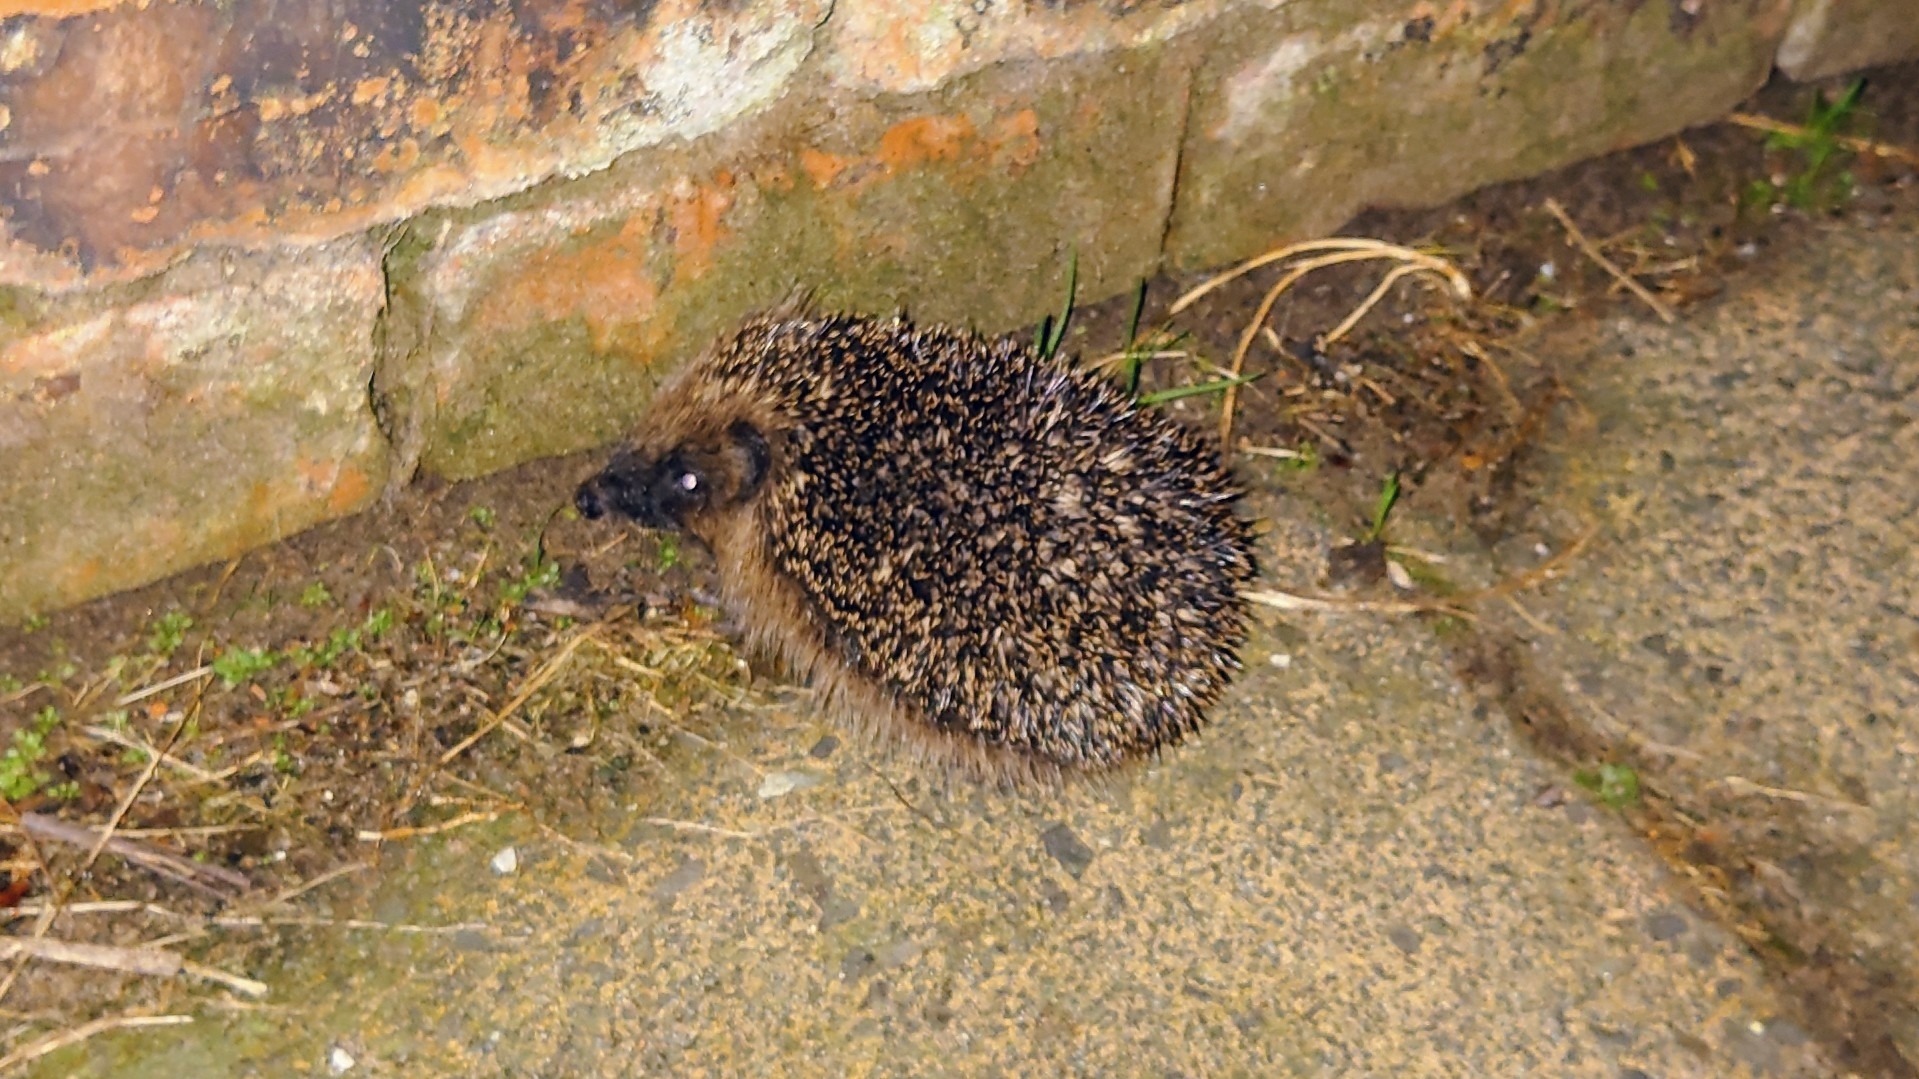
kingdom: Animalia
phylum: Chordata
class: Mammalia
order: Erinaceomorpha
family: Erinaceidae
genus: Erinaceus
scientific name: Erinaceus europaeus
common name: West european hedgehog
